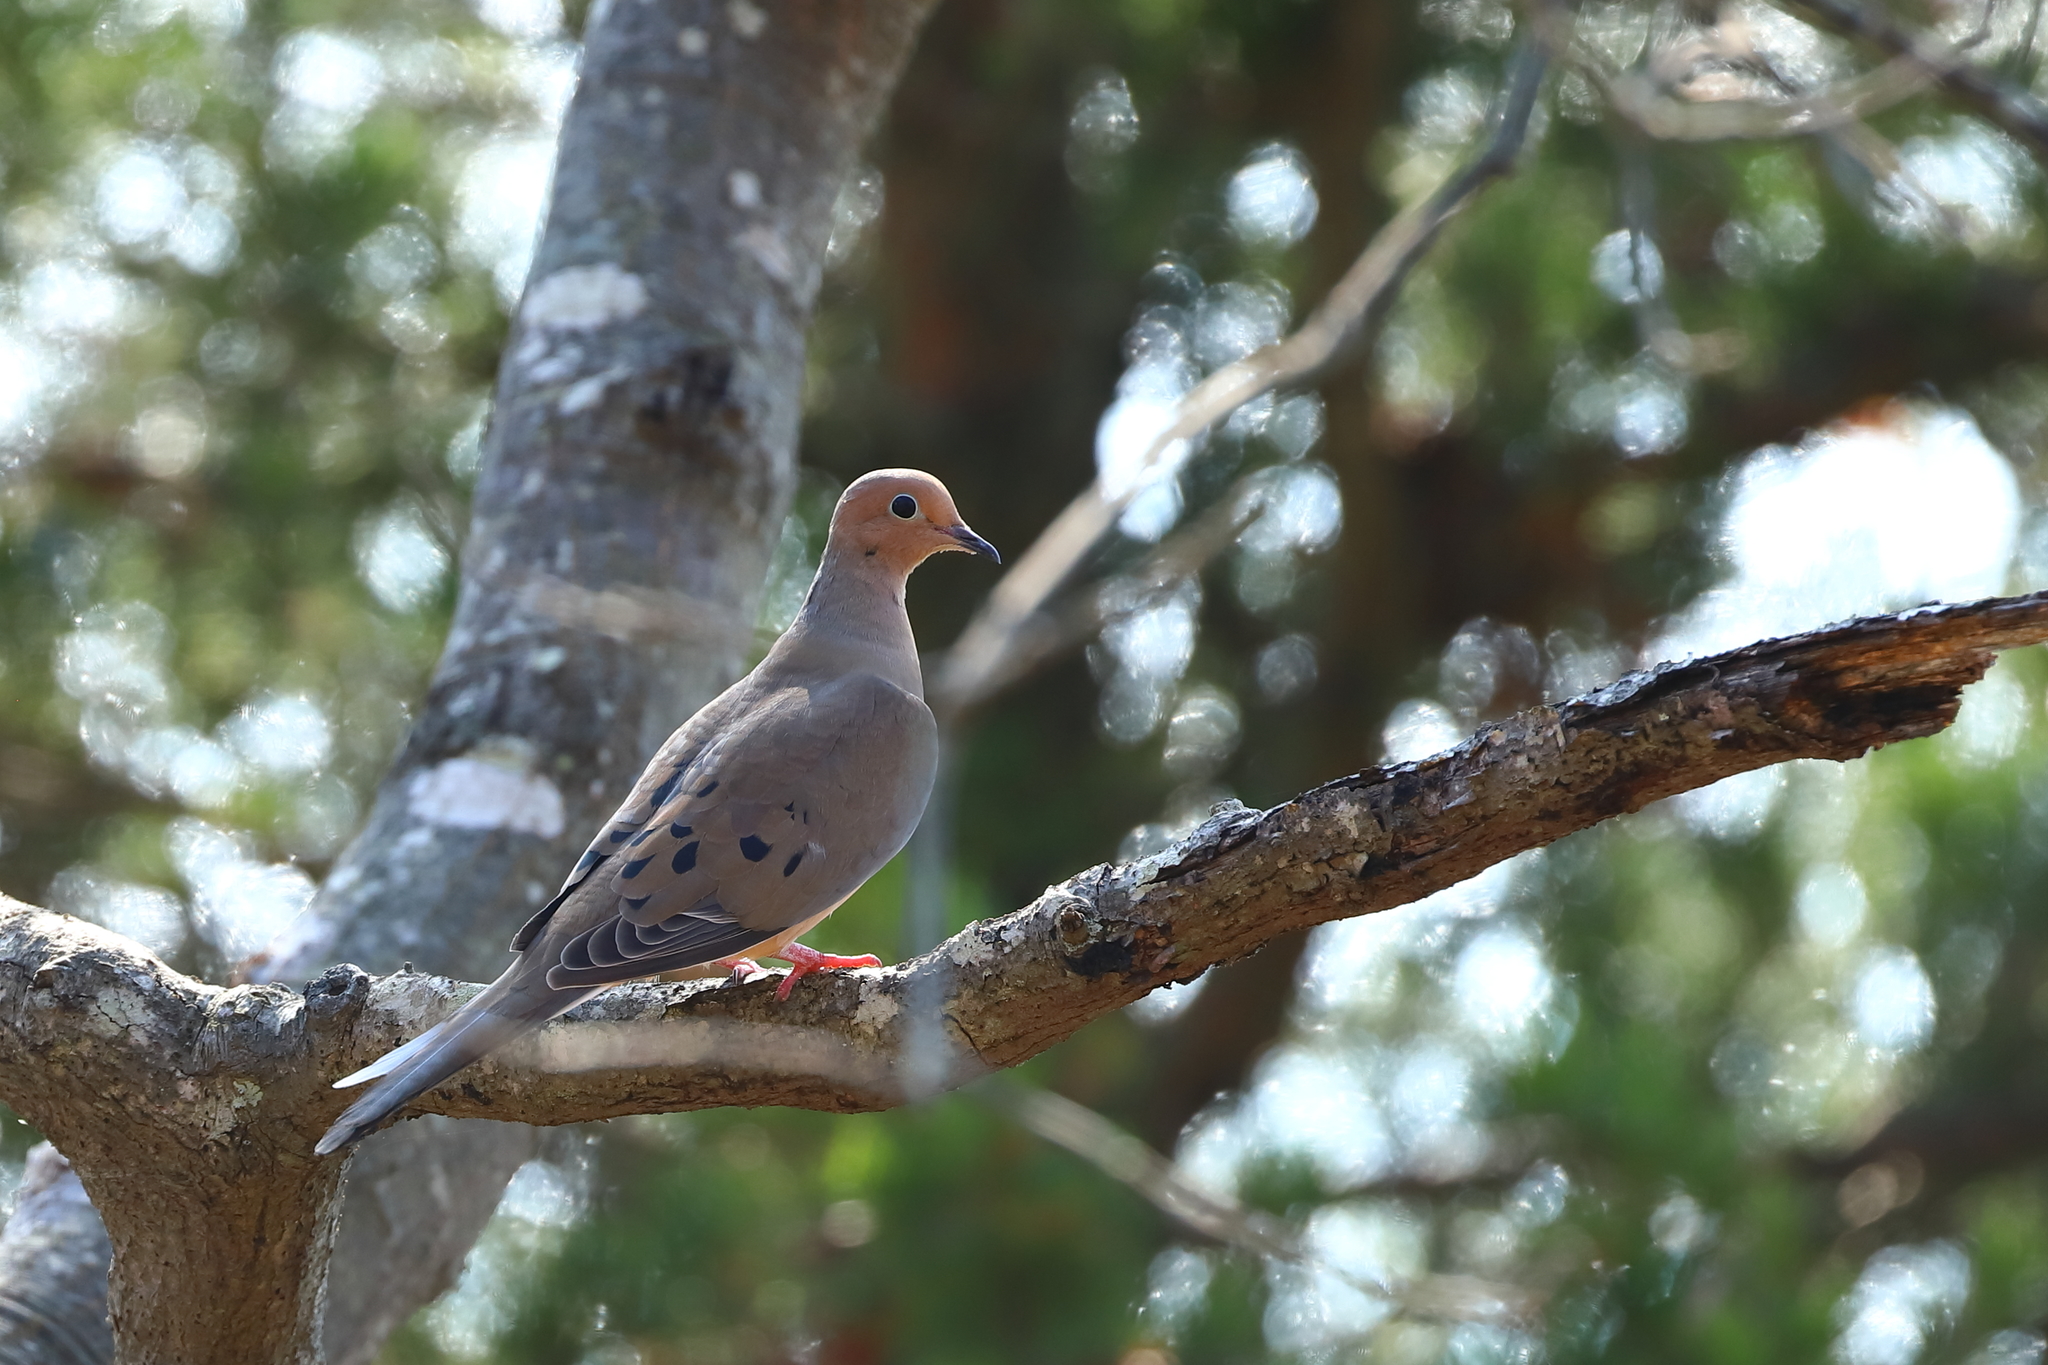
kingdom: Animalia
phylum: Chordata
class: Aves
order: Columbiformes
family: Columbidae
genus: Zenaida
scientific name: Zenaida macroura
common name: Mourning dove
